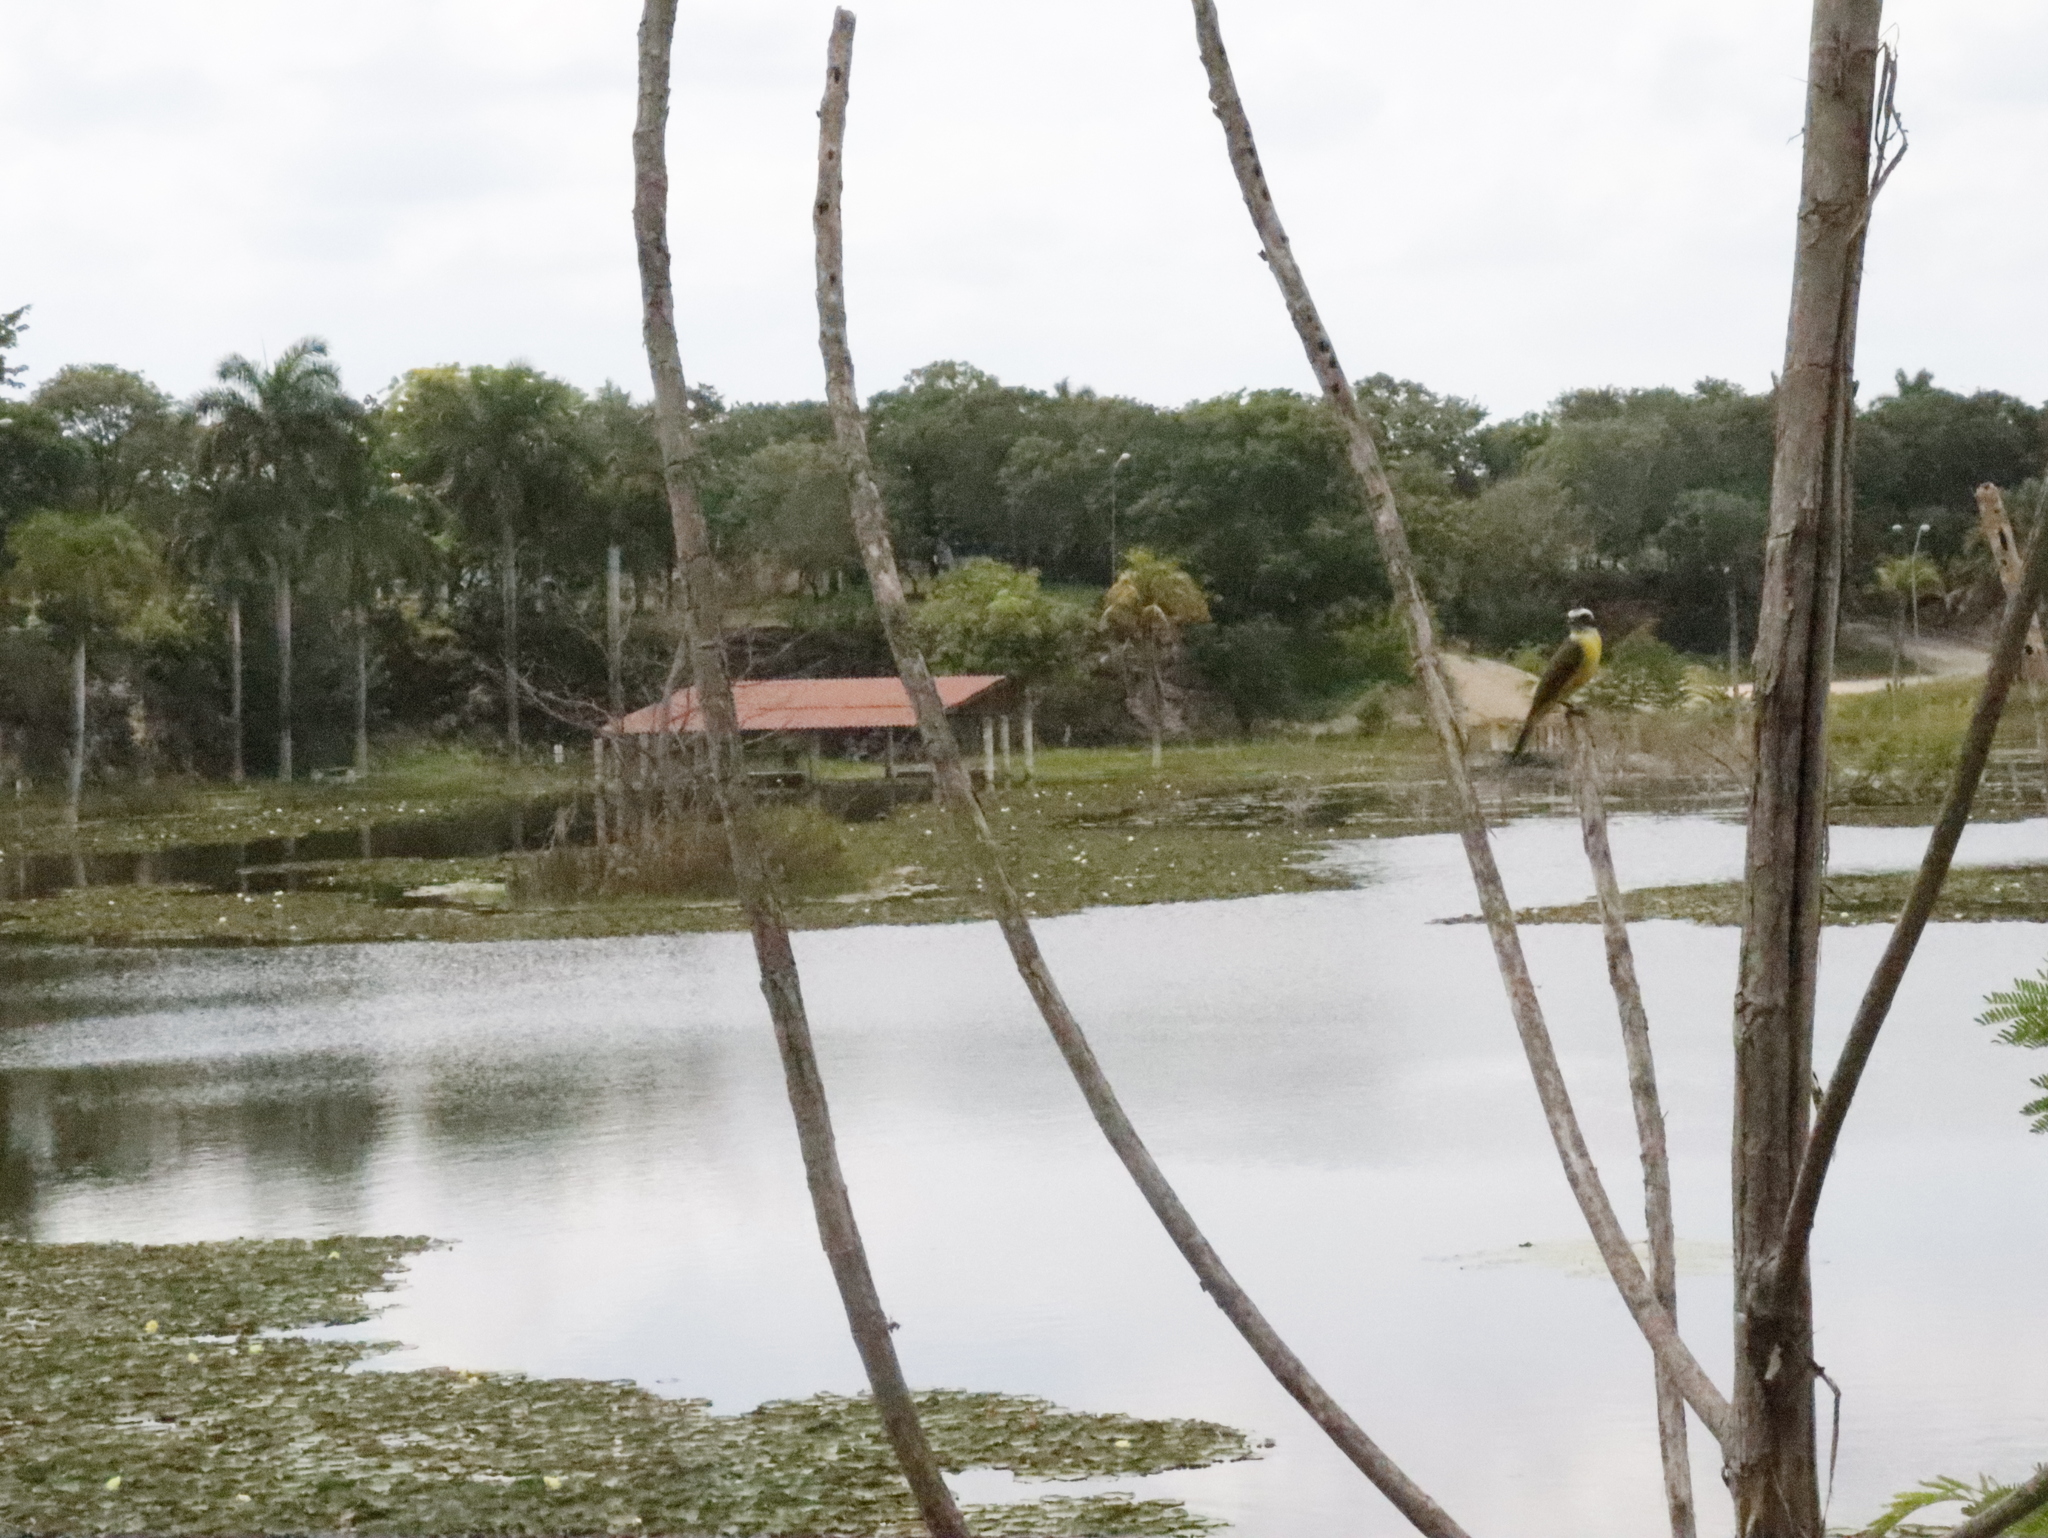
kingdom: Animalia
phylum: Chordata
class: Aves
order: Passeriformes
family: Tyrannidae
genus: Myiozetetes
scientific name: Myiozetetes similis
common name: Social flycatcher
